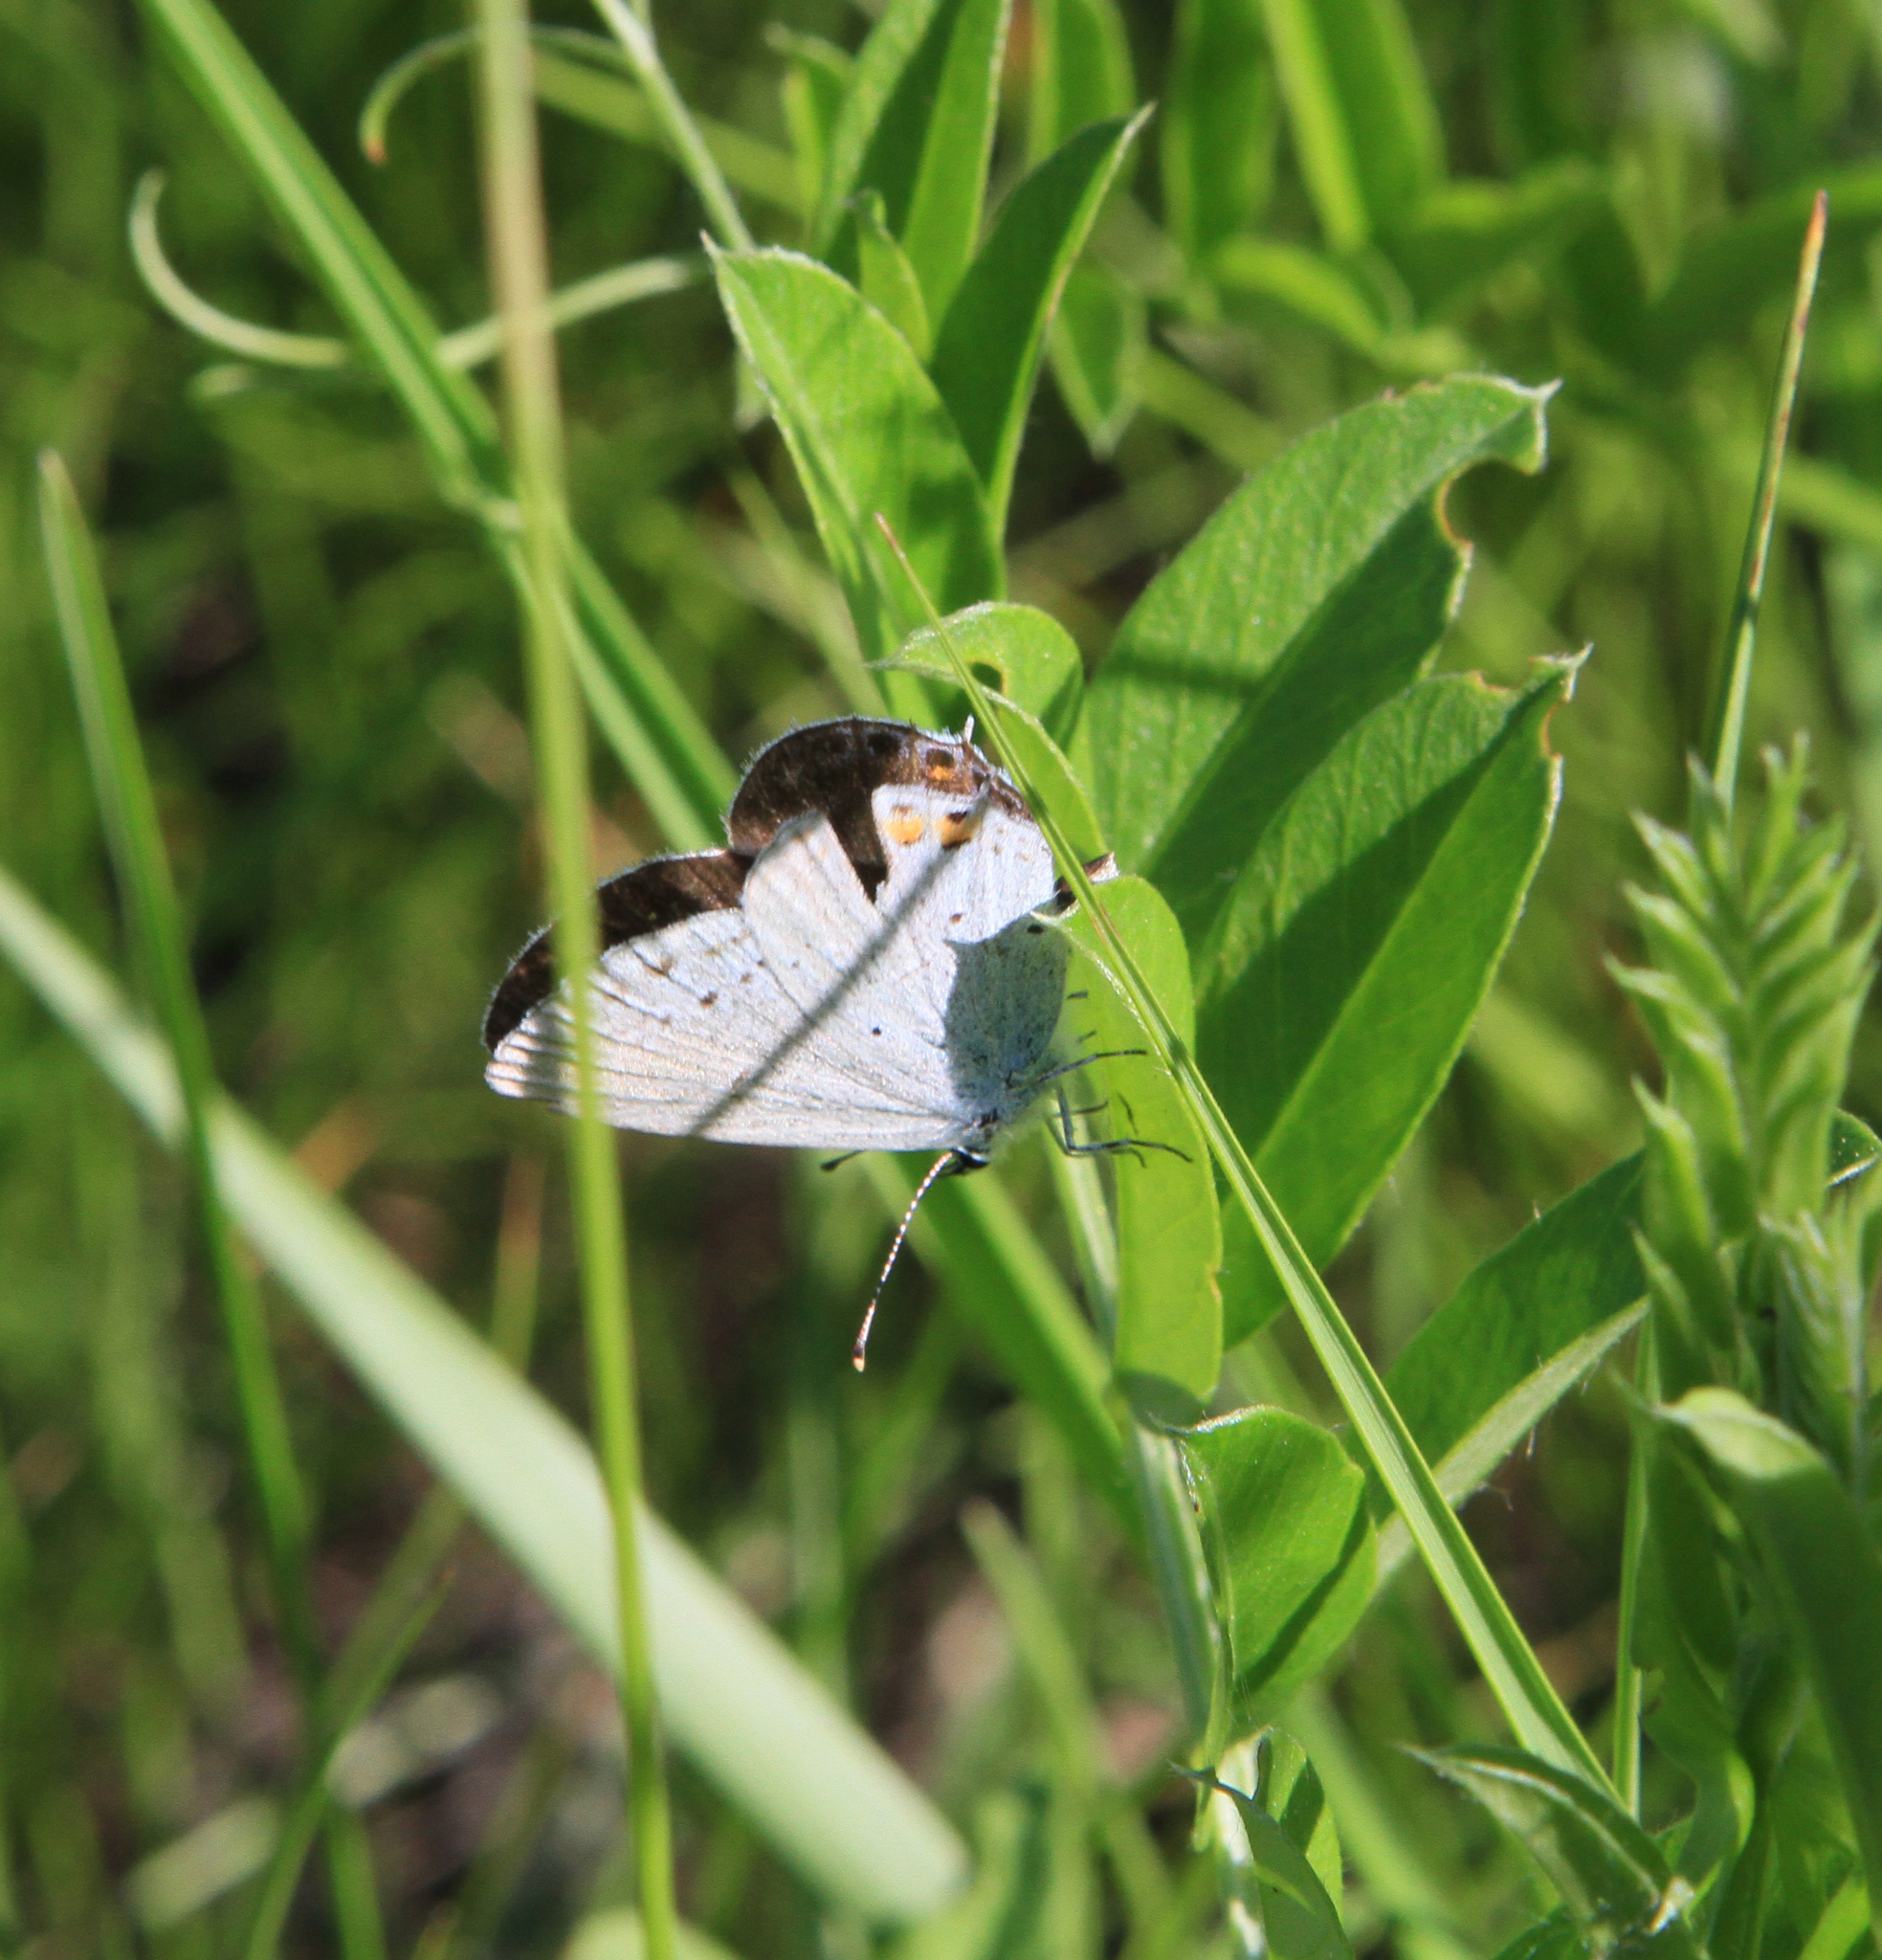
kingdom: Animalia
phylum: Arthropoda
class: Insecta
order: Lepidoptera
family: Lycaenidae
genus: Elkalyce
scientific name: Elkalyce argiades
